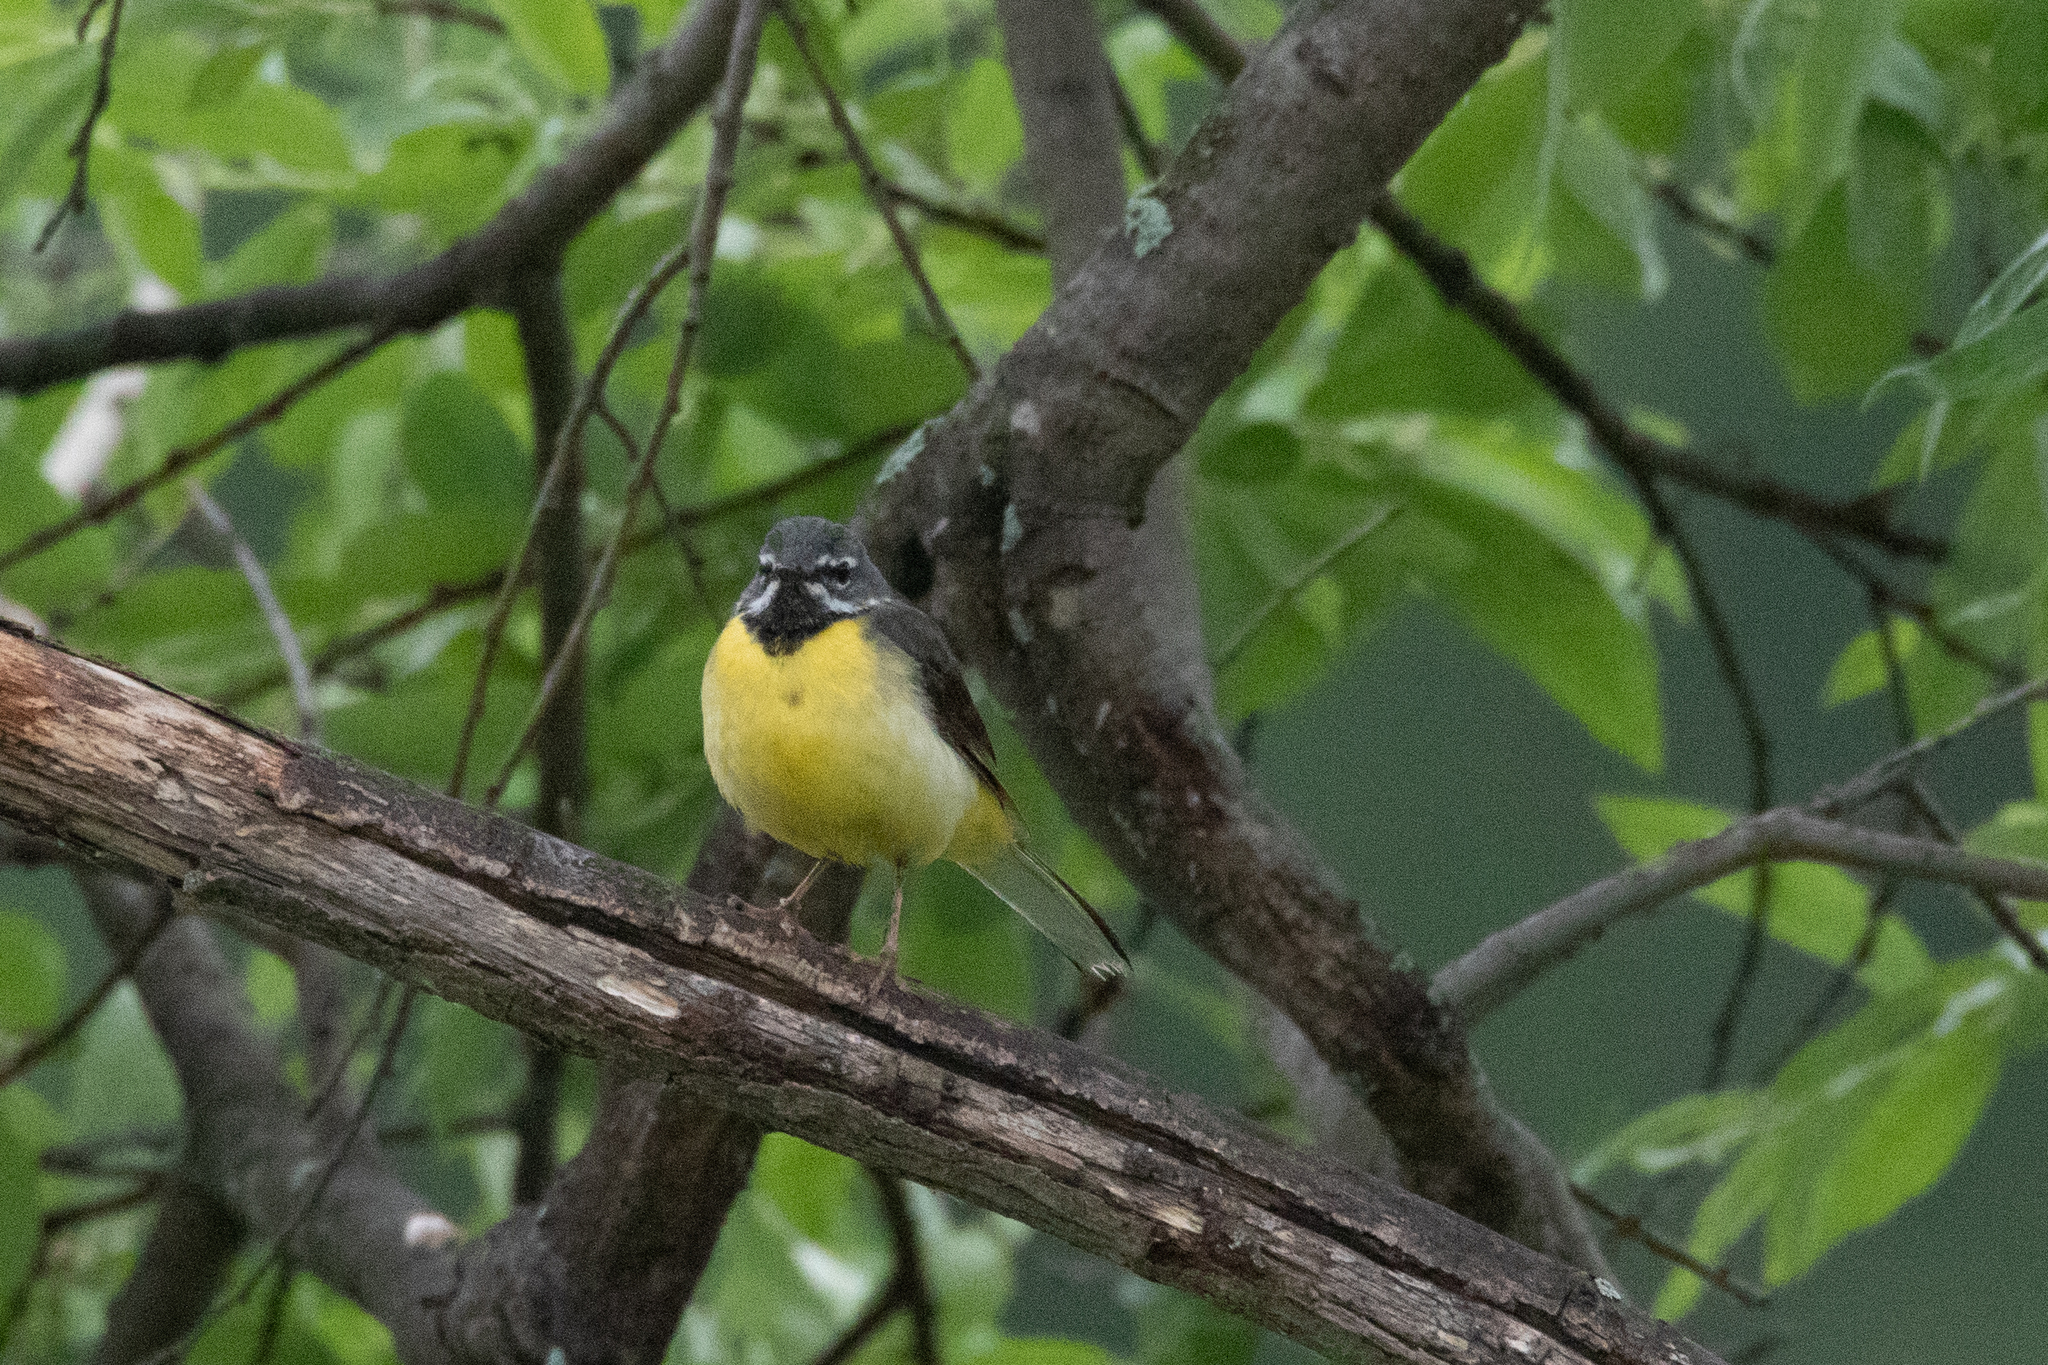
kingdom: Animalia
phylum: Chordata
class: Aves
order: Passeriformes
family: Motacillidae
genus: Motacilla
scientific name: Motacilla cinerea
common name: Grey wagtail
